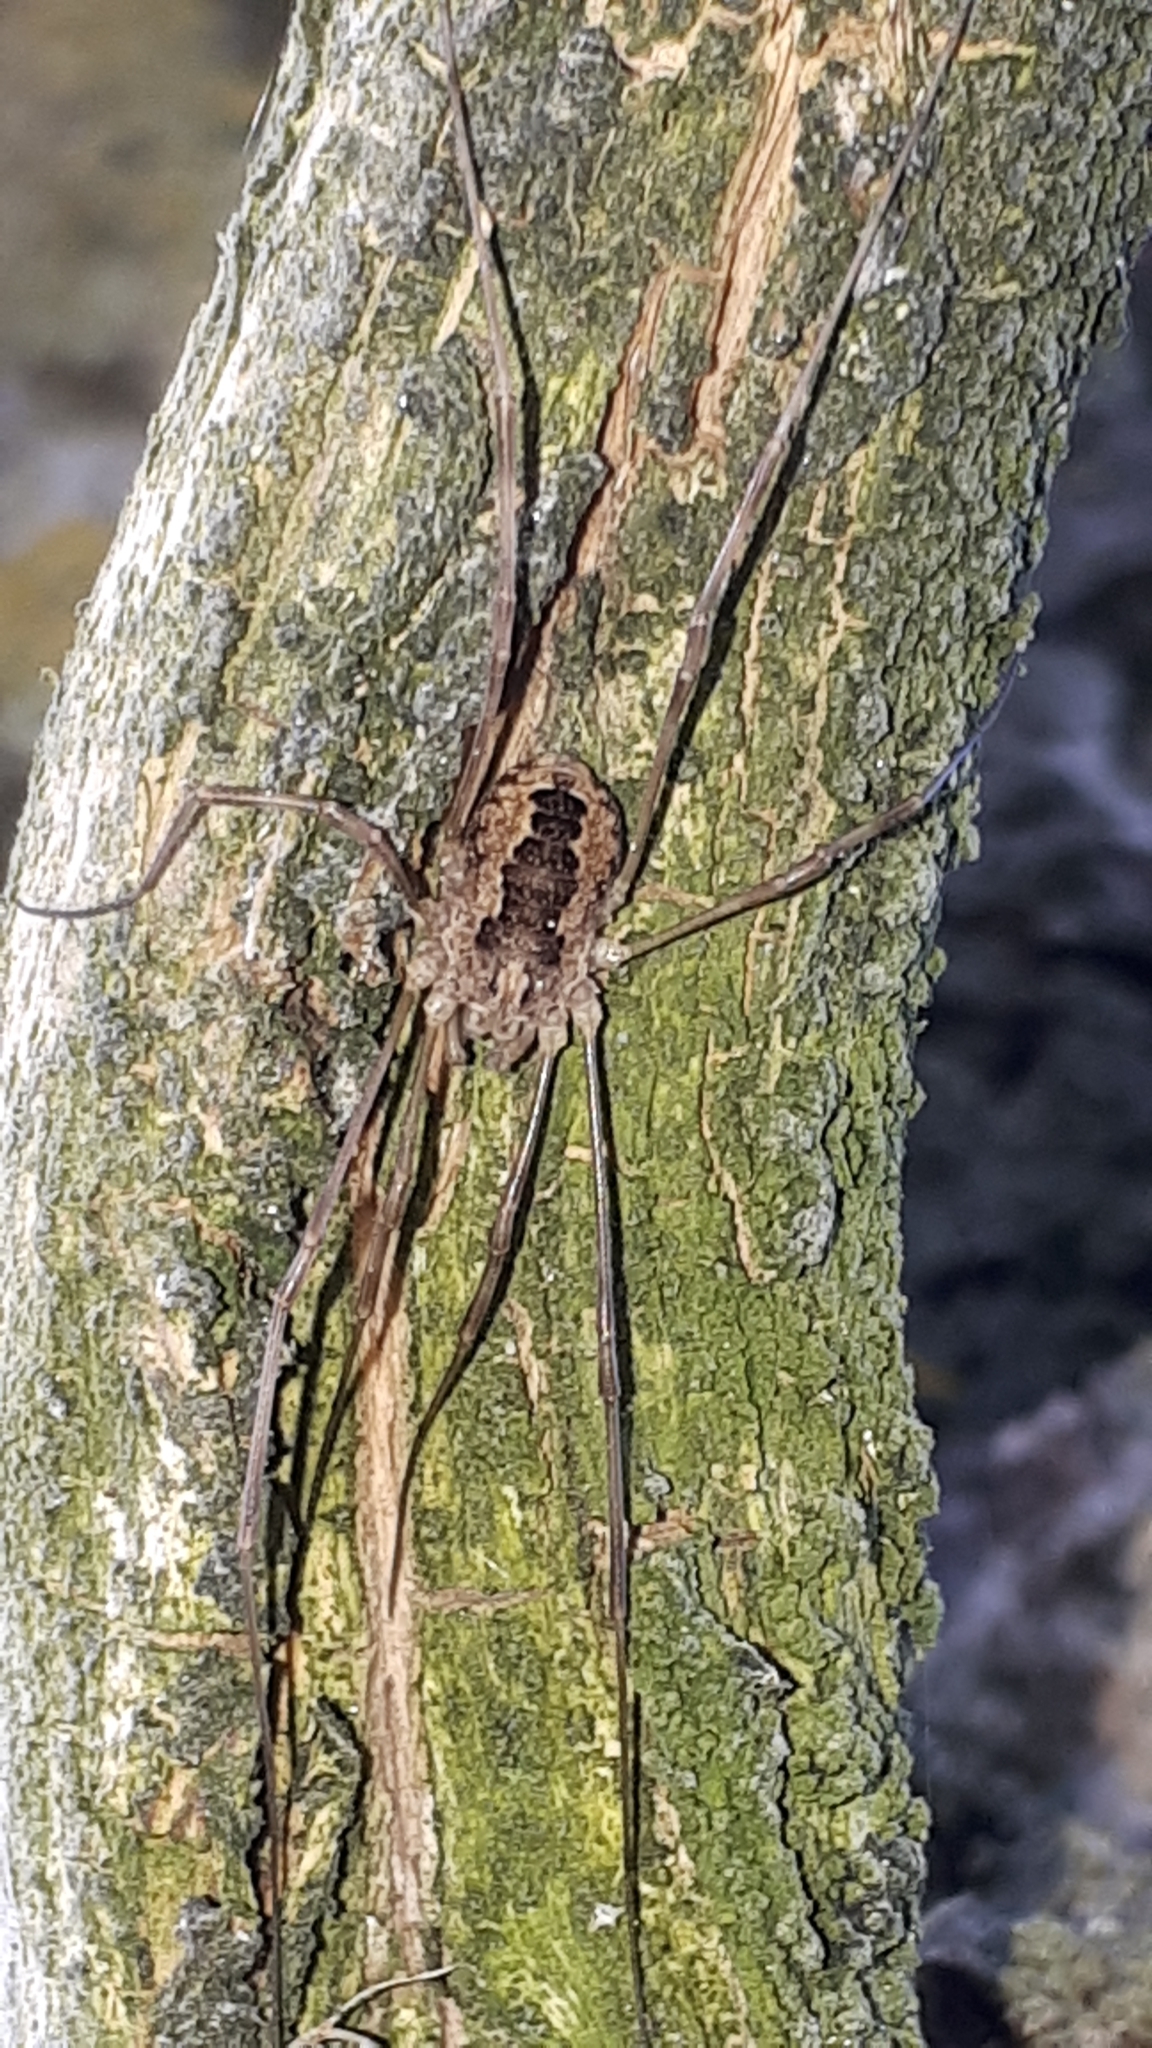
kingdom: Animalia
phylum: Arthropoda
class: Arachnida
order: Opiliones
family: Phalangiidae
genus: Rilaena
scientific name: Rilaena triangularis
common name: Spring harvestman
